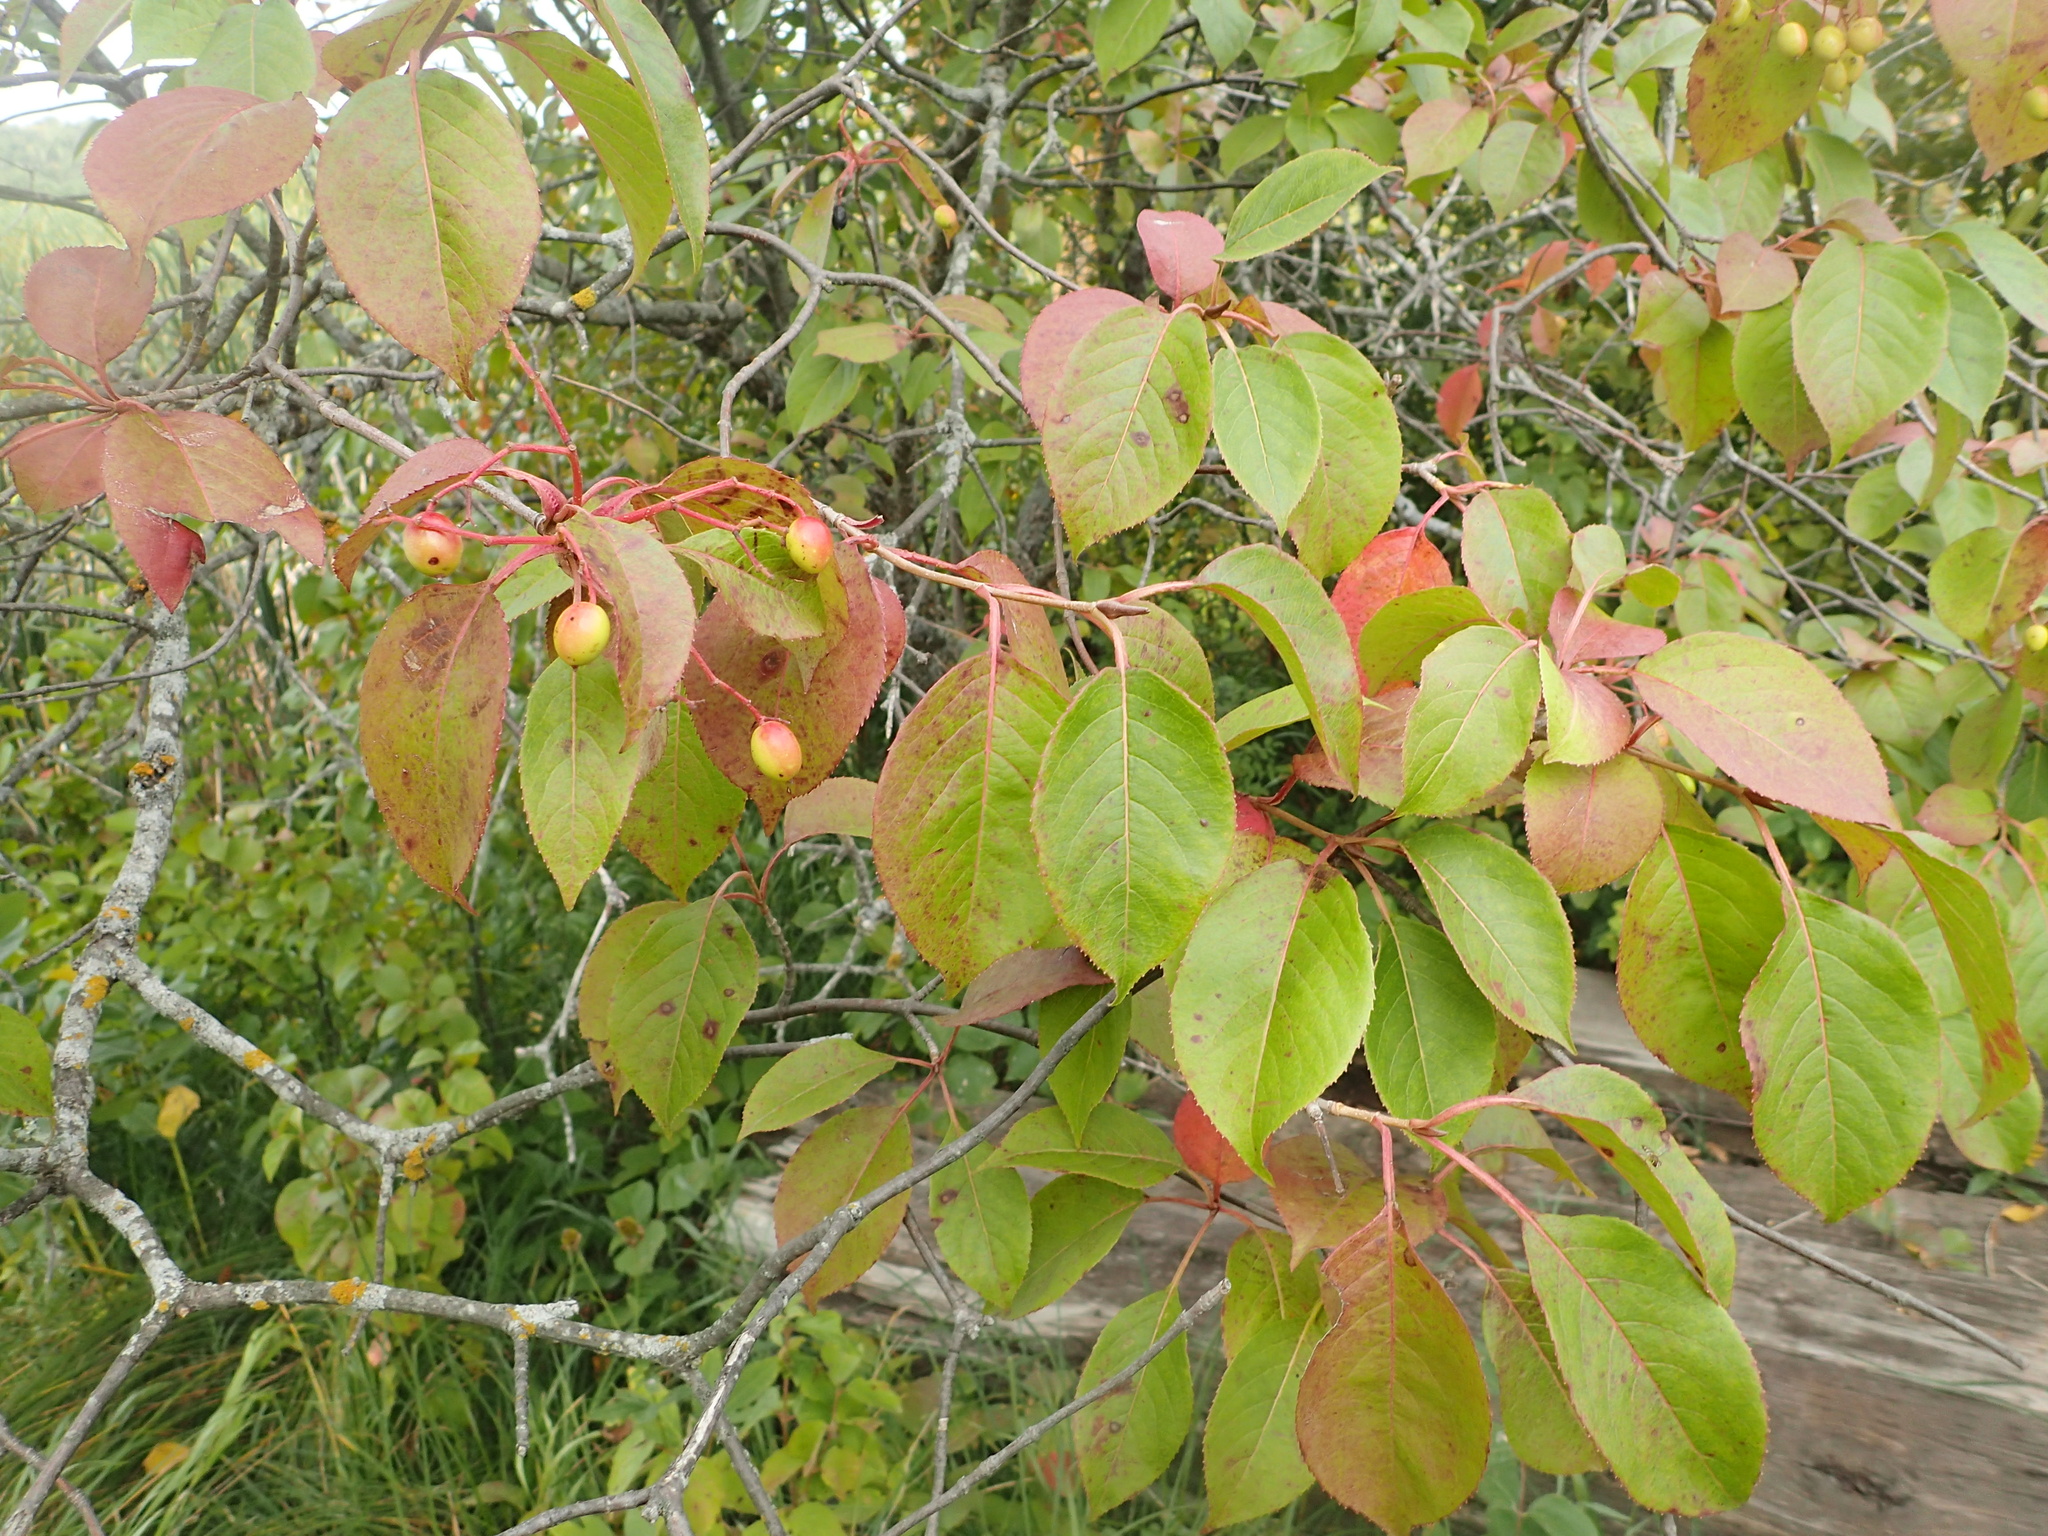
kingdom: Plantae
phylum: Tracheophyta
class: Magnoliopsida
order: Dipsacales
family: Viburnaceae
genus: Viburnum
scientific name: Viburnum lentago
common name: Black haw
